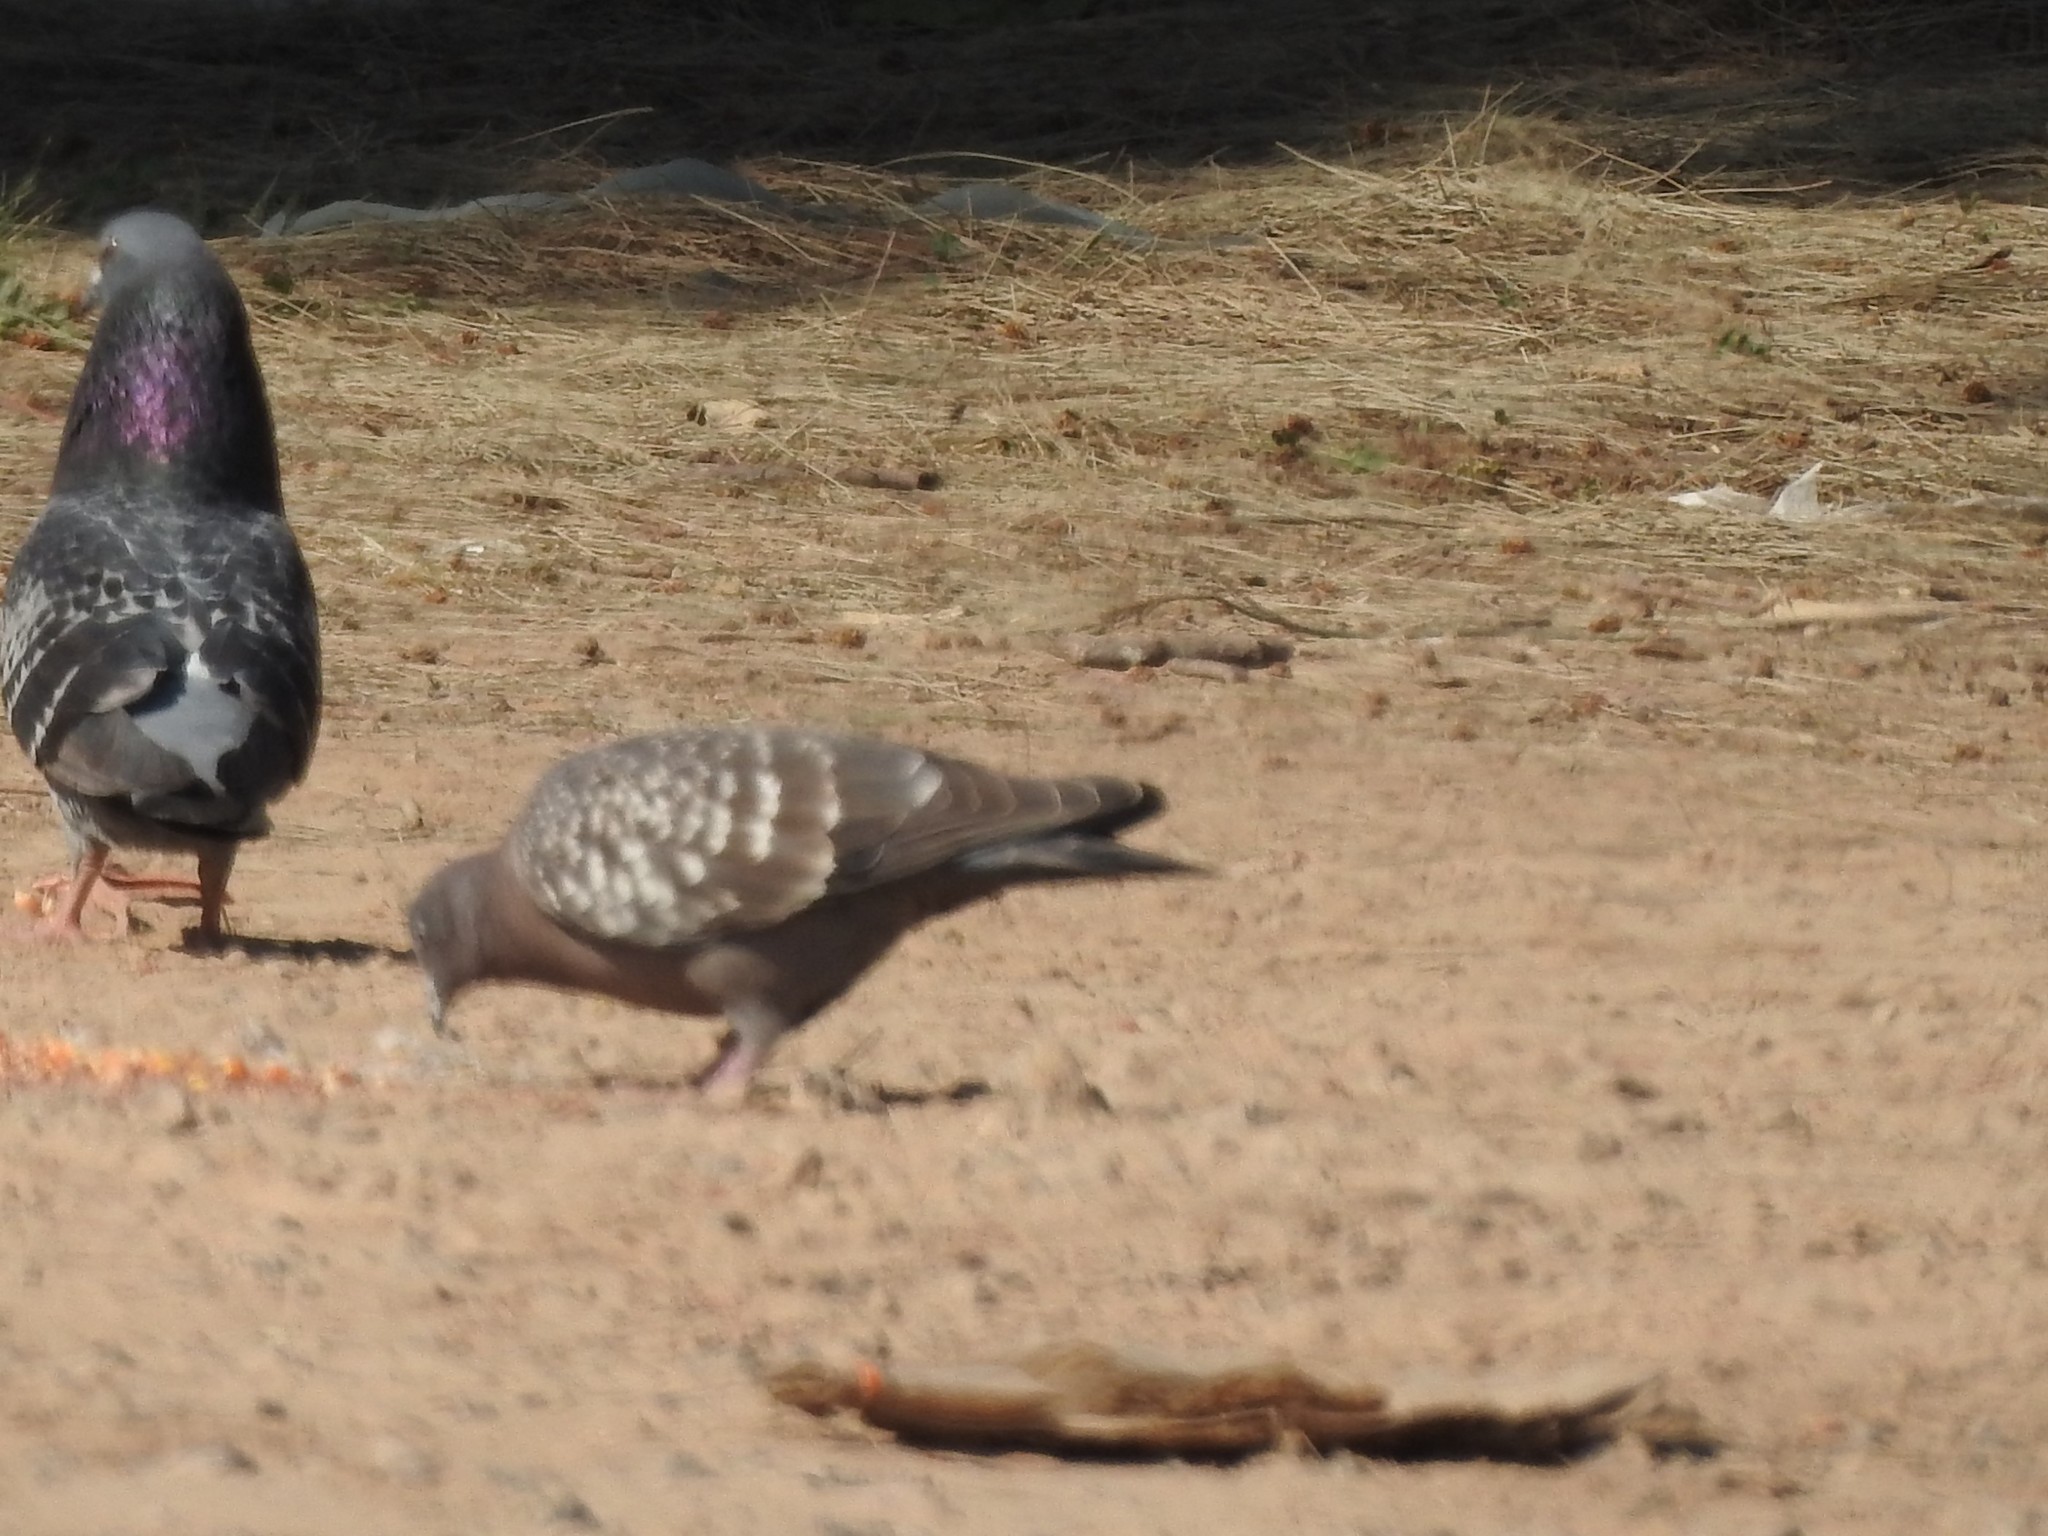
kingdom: Animalia
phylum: Chordata
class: Aves
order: Columbiformes
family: Columbidae
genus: Patagioenas
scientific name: Patagioenas maculosa
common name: Spot-winged pigeon
